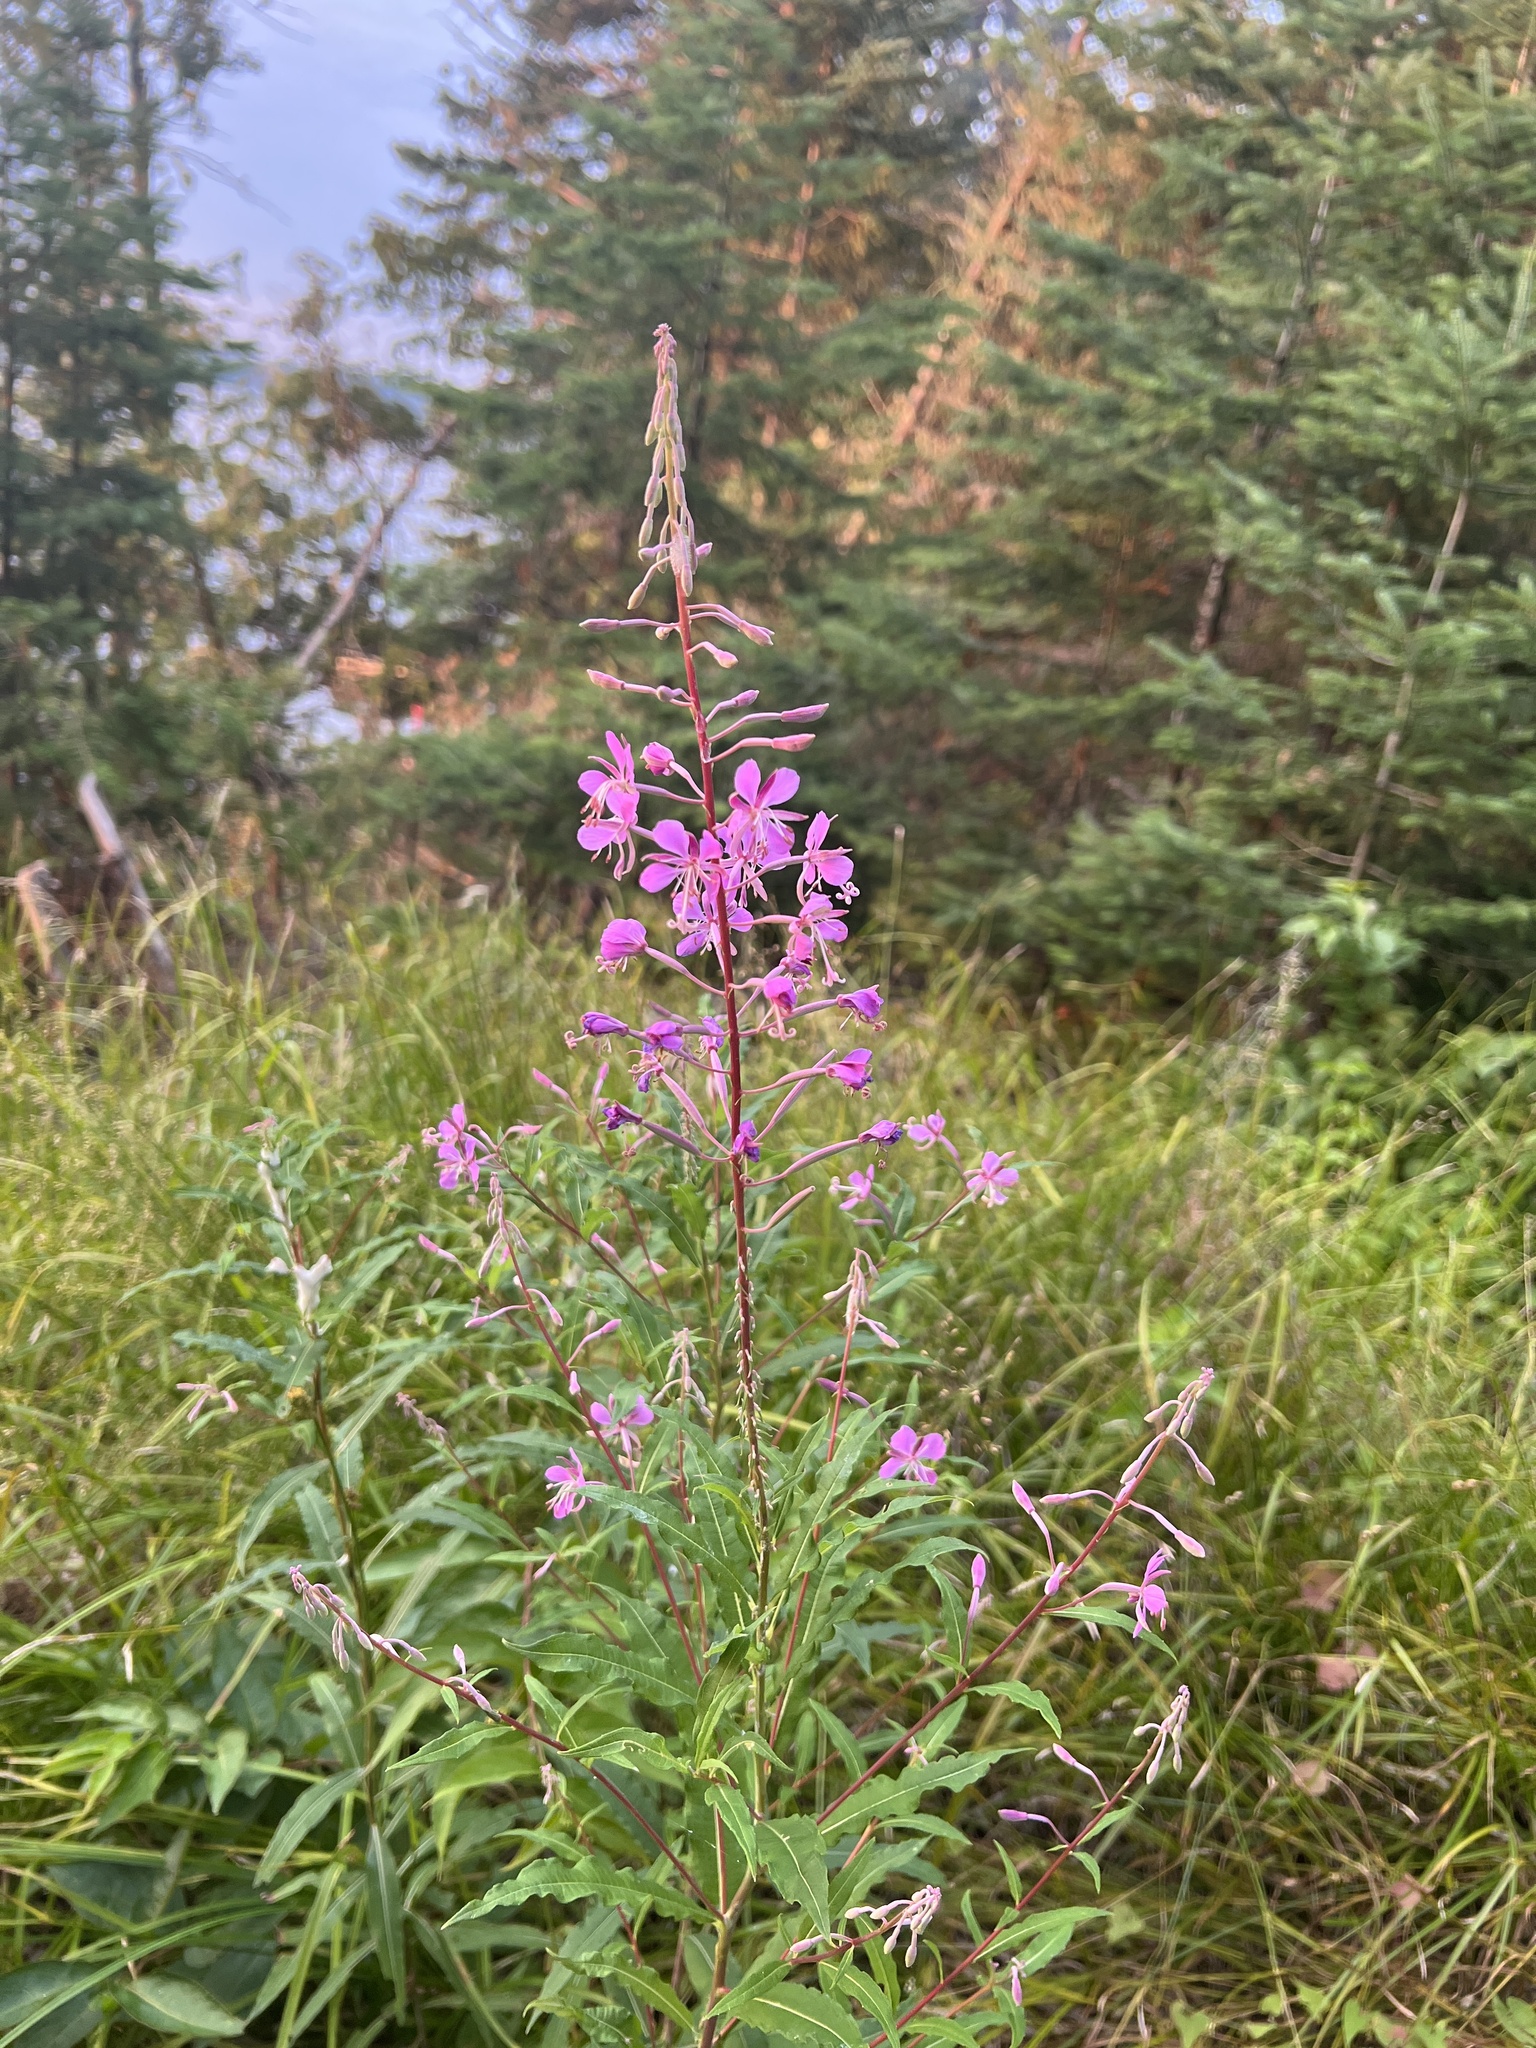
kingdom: Plantae
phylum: Tracheophyta
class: Magnoliopsida
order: Myrtales
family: Onagraceae
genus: Chamaenerion
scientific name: Chamaenerion angustifolium
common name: Fireweed
